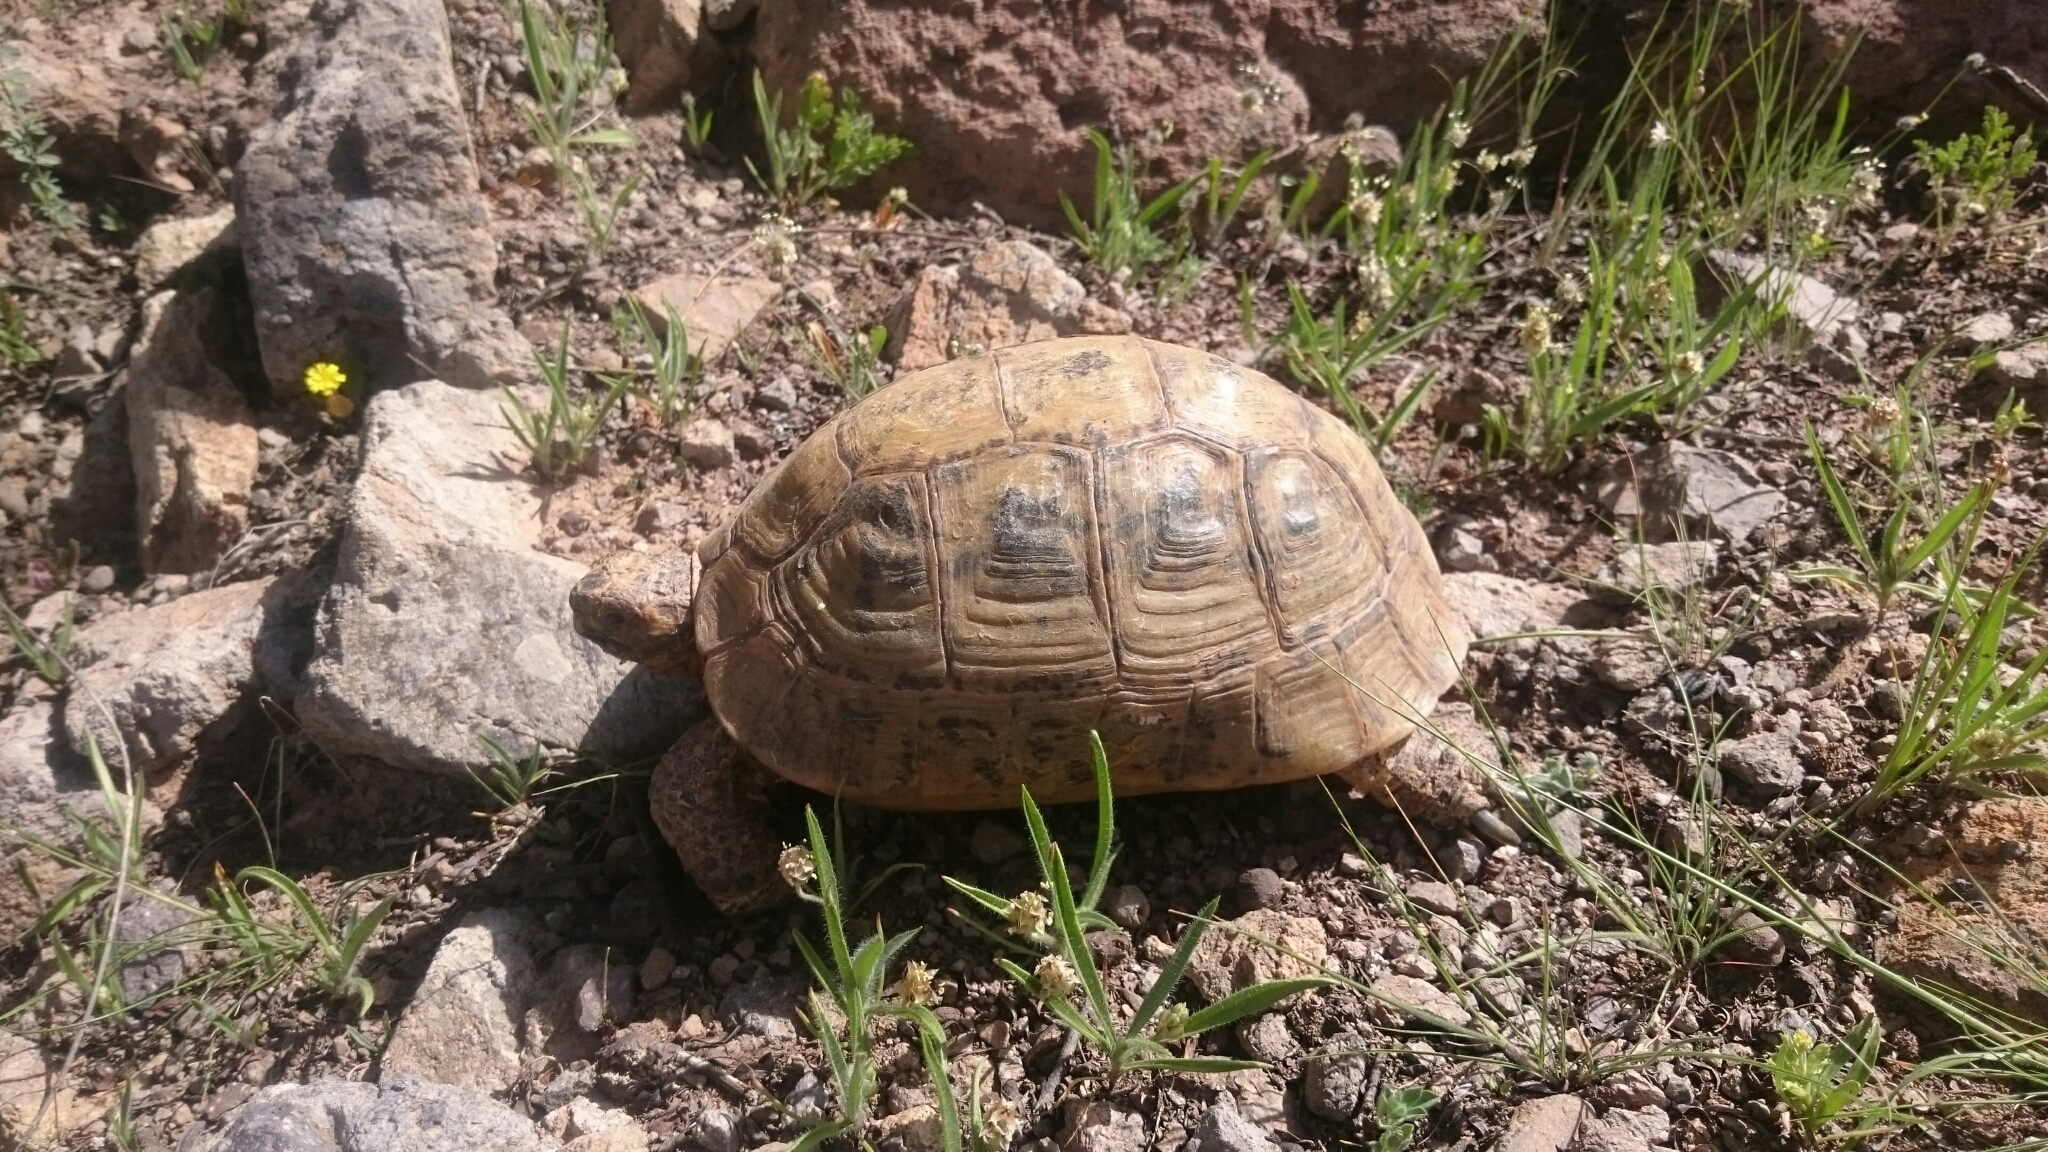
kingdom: Animalia
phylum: Chordata
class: Testudines
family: Testudinidae
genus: Testudo
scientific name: Testudo graeca
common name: Common tortoise
